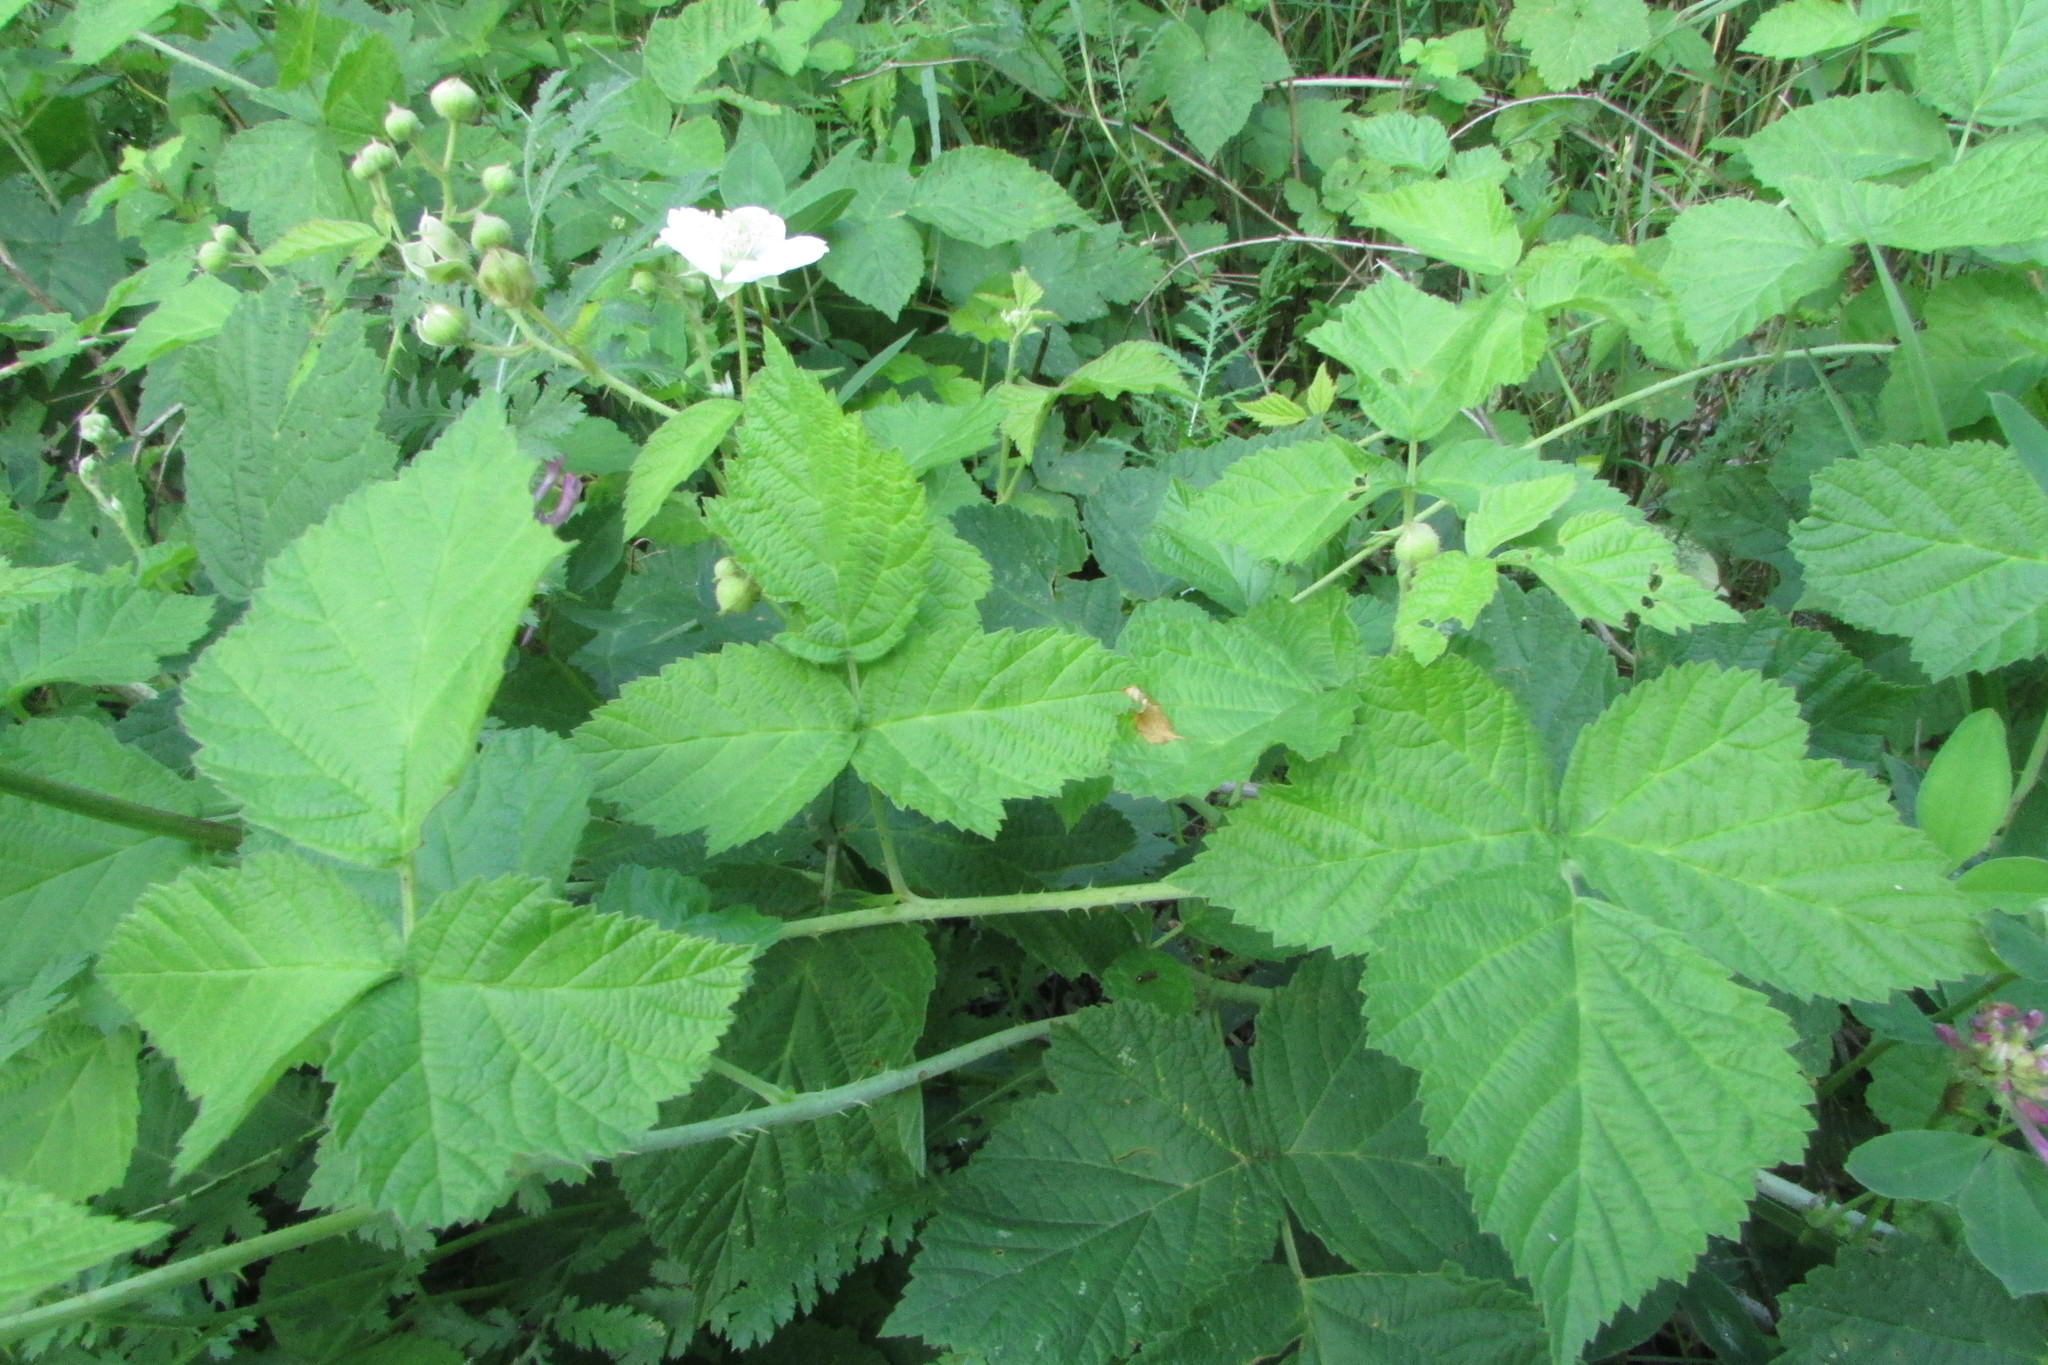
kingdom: Plantae
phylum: Tracheophyta
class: Magnoliopsida
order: Rosales
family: Rosaceae
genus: Rubus
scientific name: Rubus caesius
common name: Dewberry
